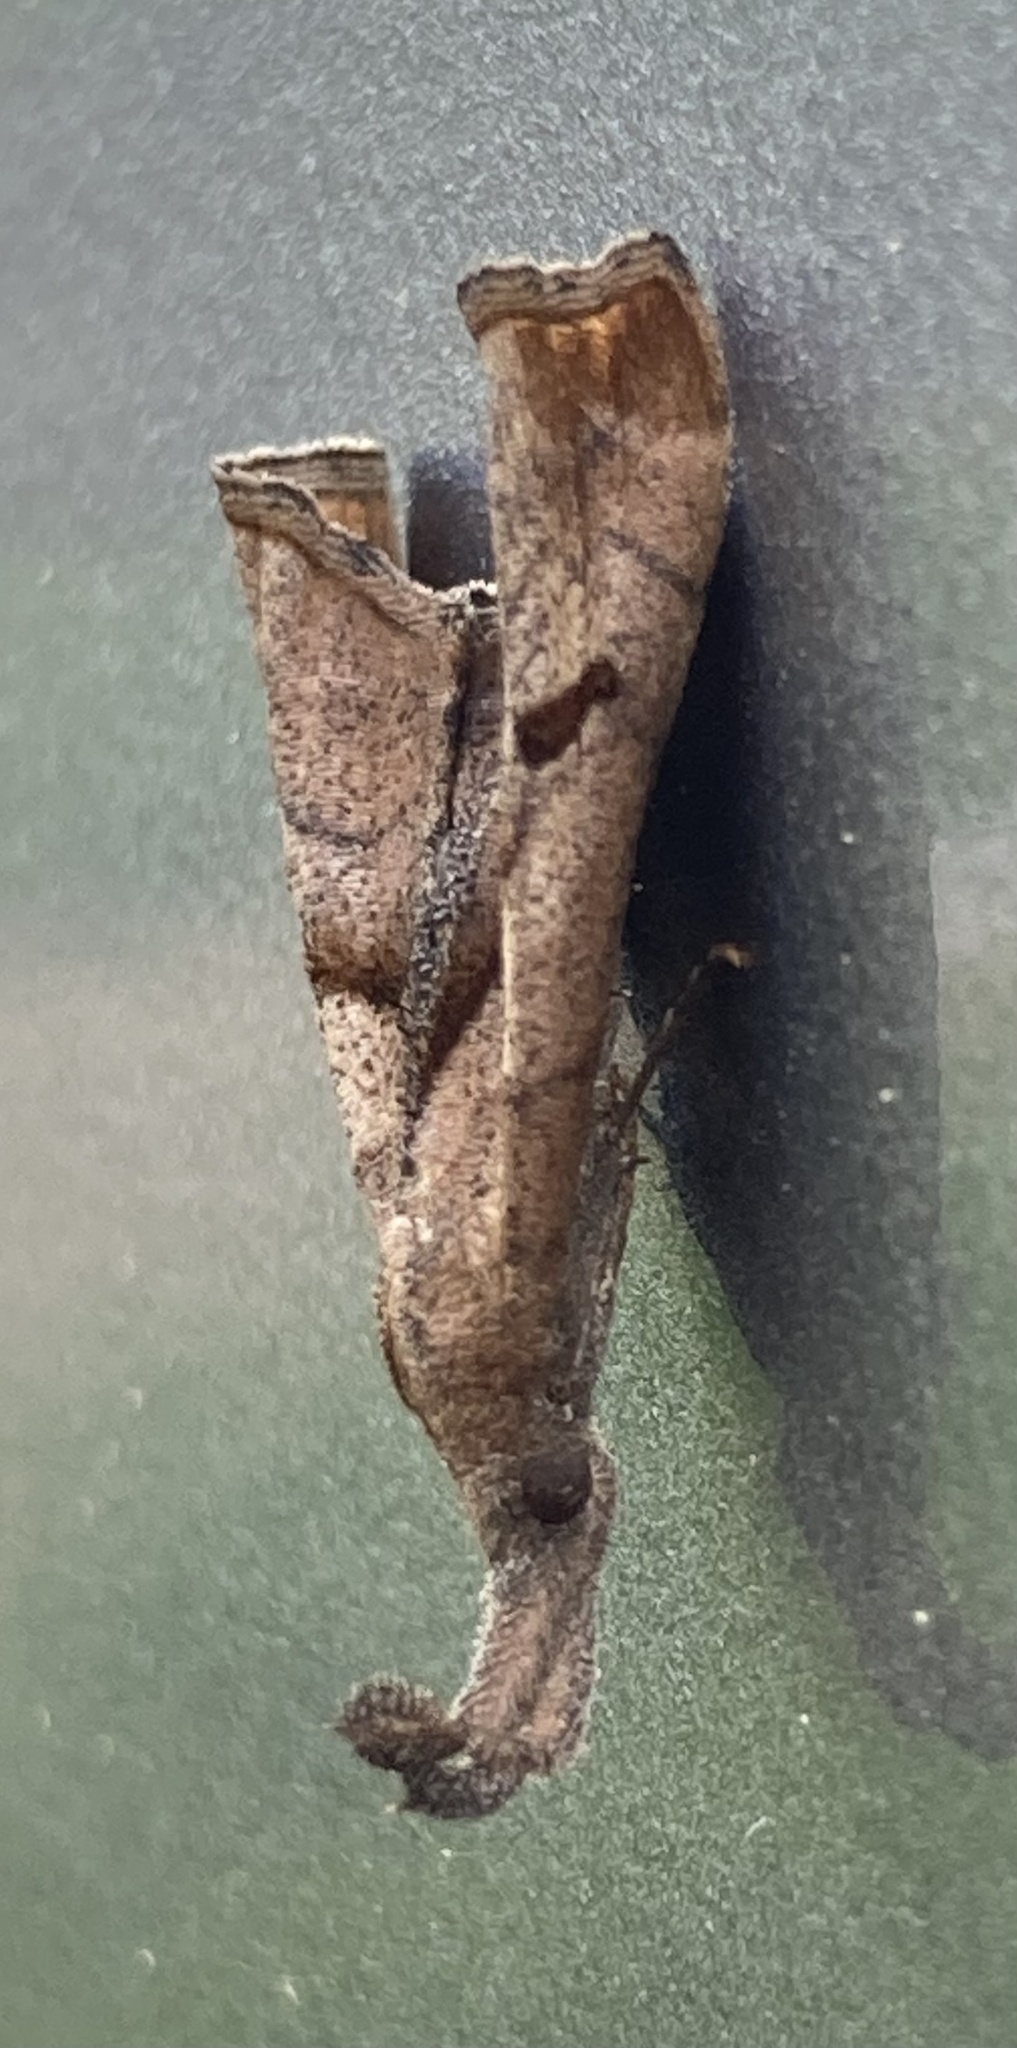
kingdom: Animalia
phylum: Arthropoda
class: Insecta
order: Lepidoptera
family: Erebidae
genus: Palthis
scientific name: Palthis angulalis
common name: Dark-spotted palthis moth
